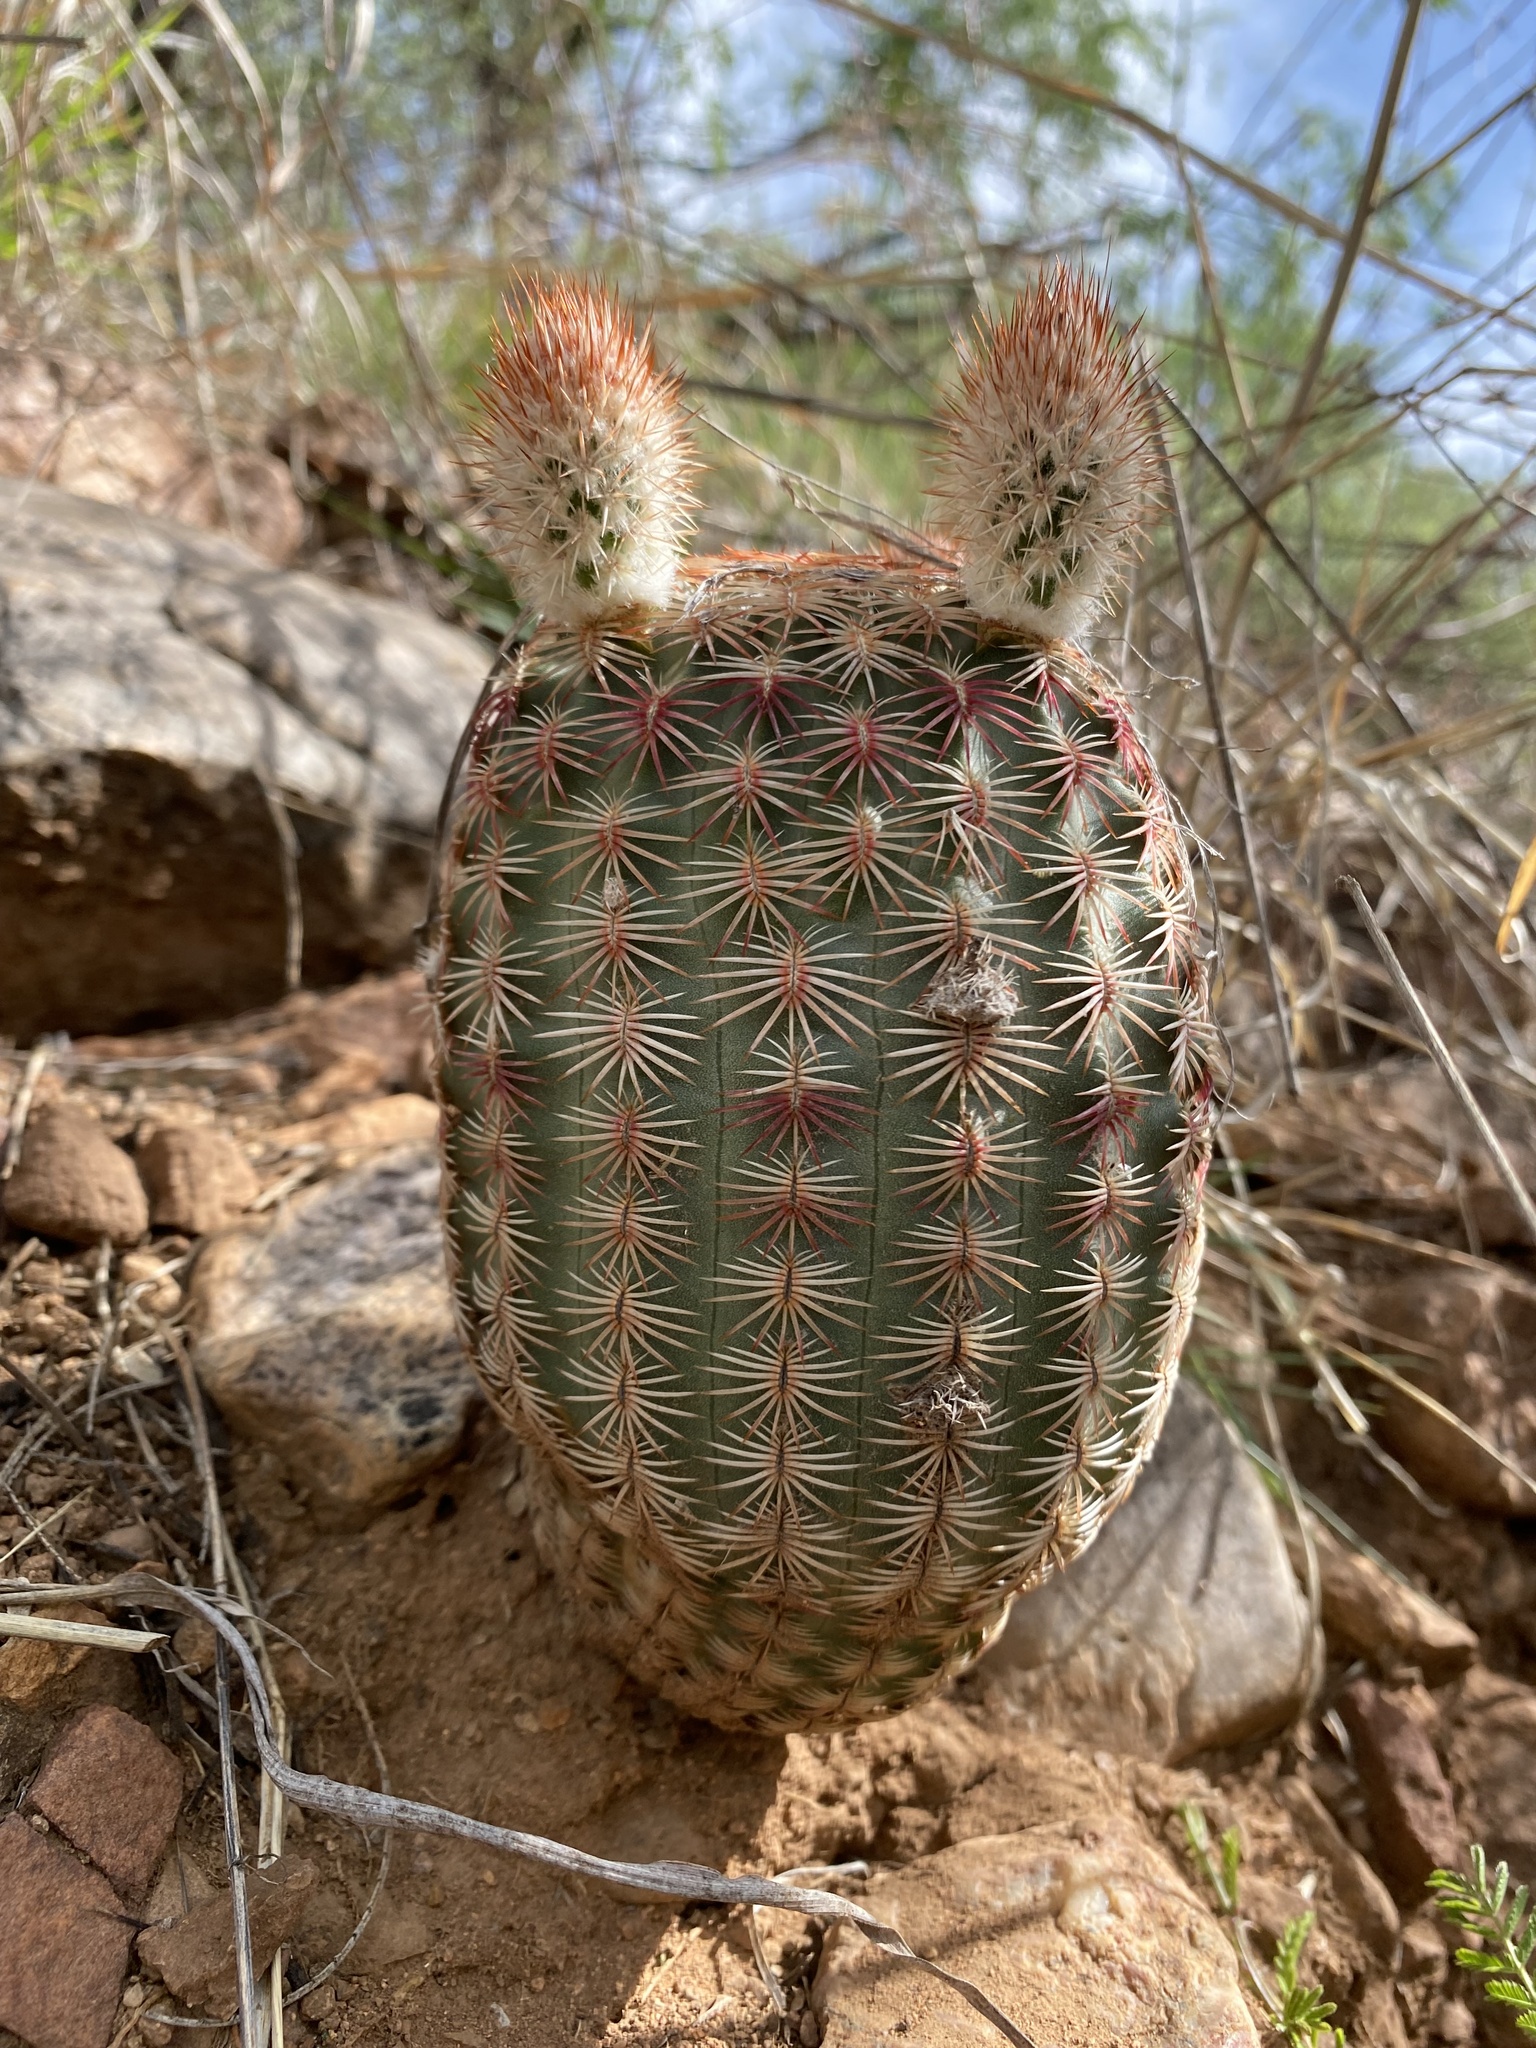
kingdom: Plantae
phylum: Tracheophyta
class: Magnoliopsida
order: Caryophyllales
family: Cactaceae
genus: Echinocereus
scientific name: Echinocereus rigidissimus
